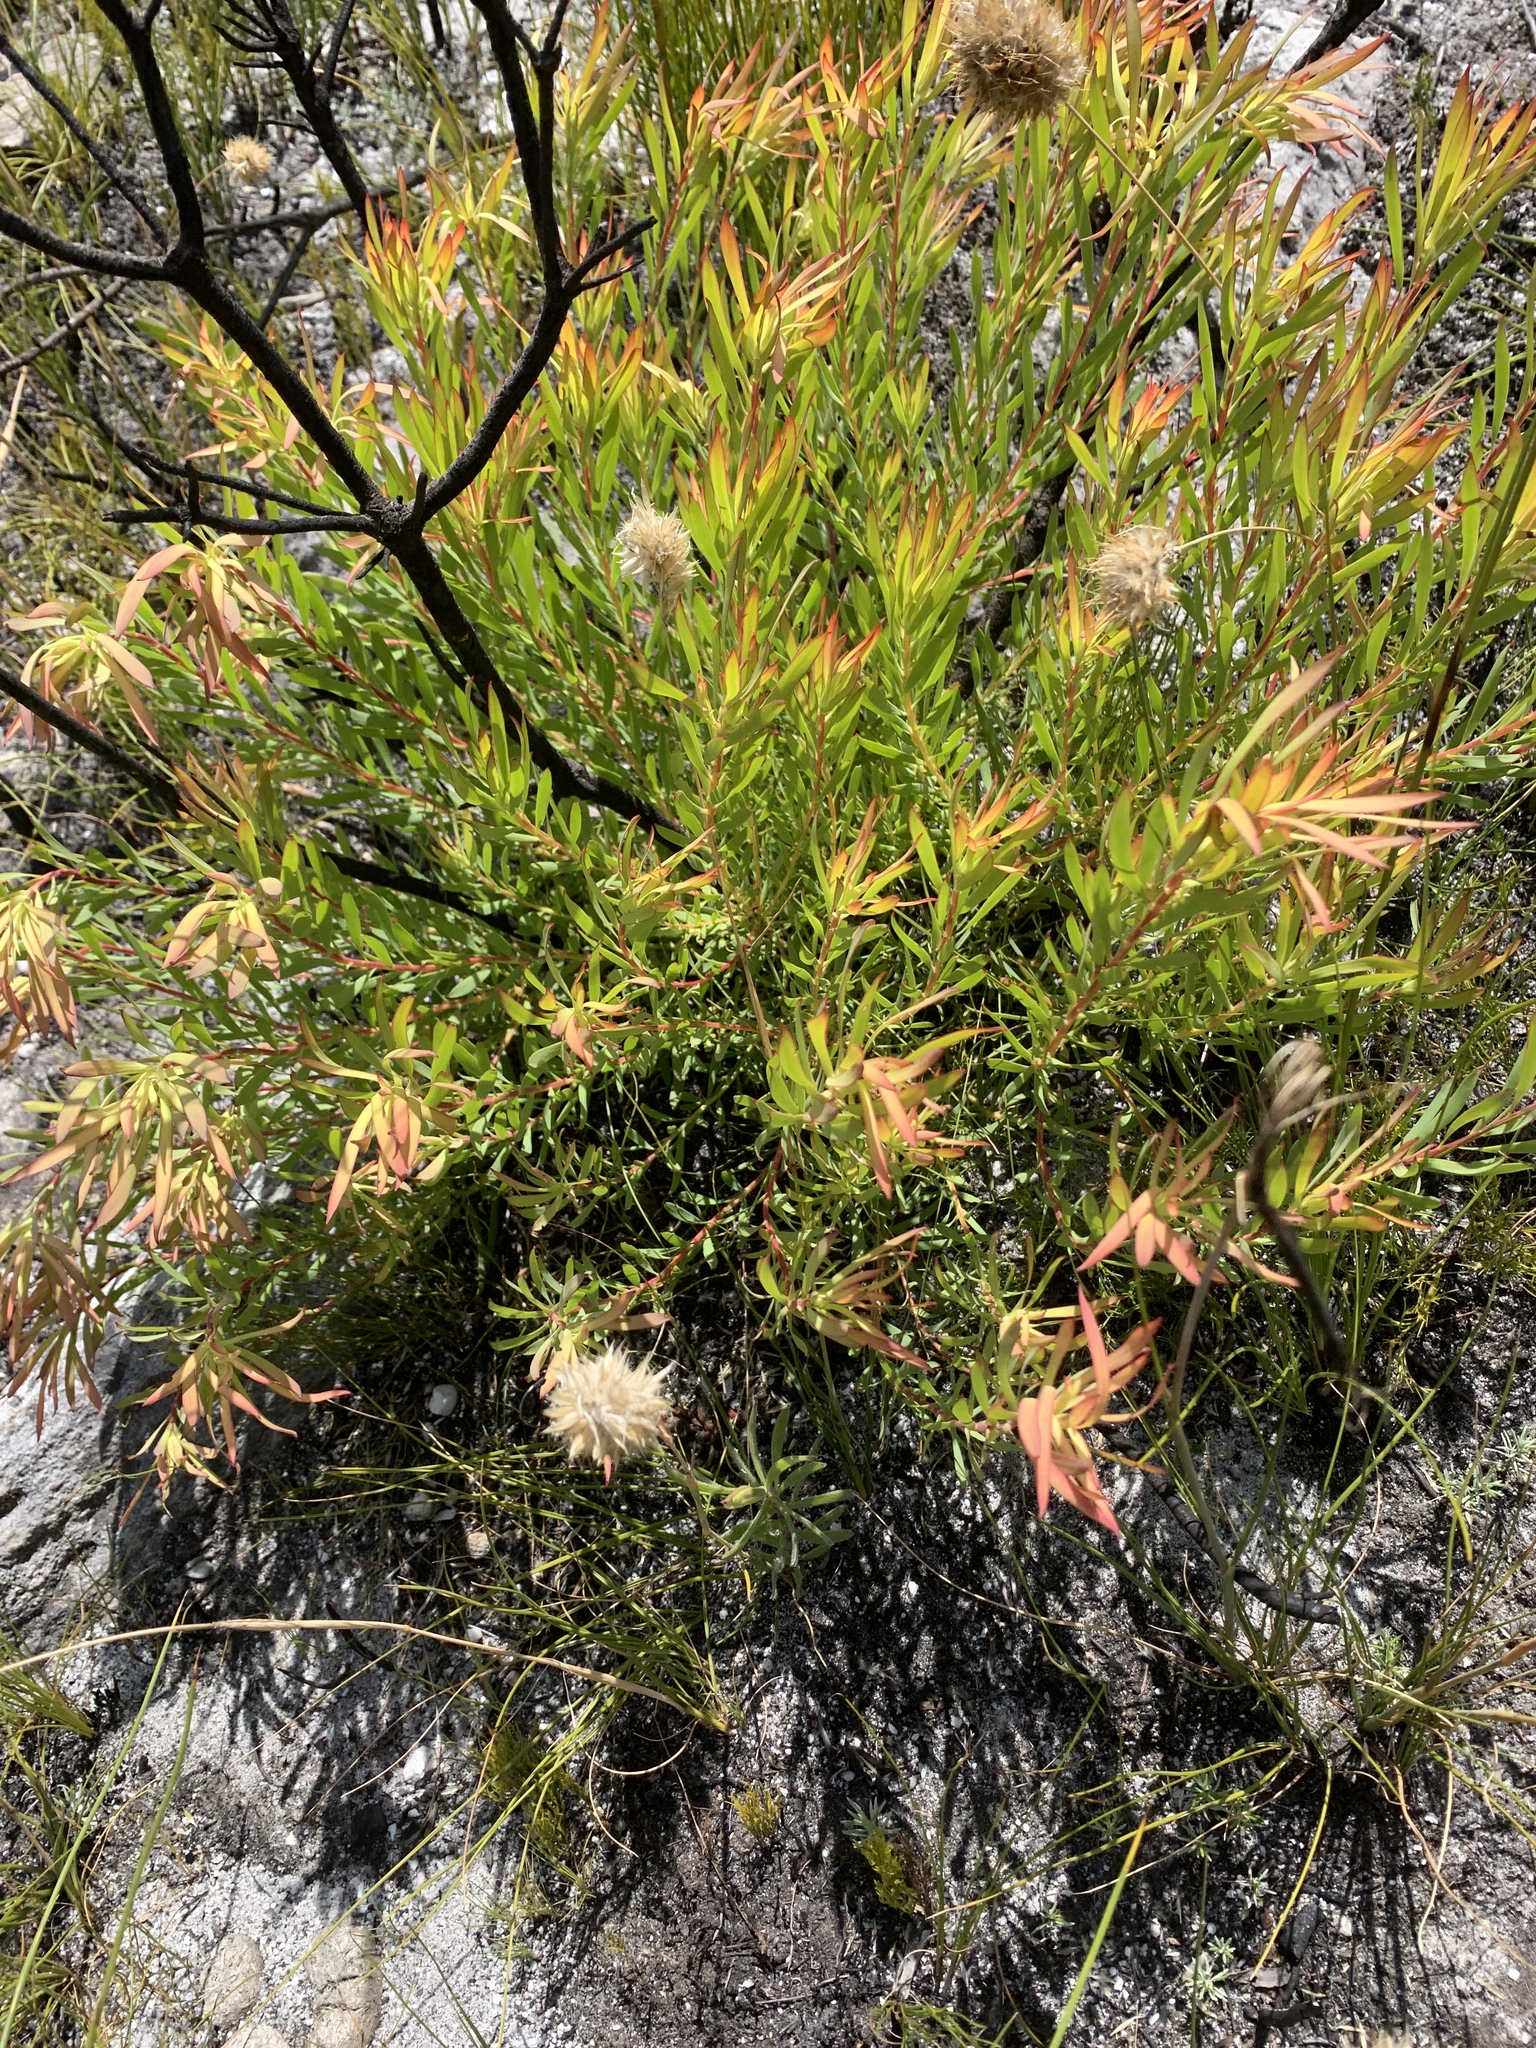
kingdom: Plantae
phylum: Tracheophyta
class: Magnoliopsida
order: Proteales
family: Proteaceae
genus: Leucadendron
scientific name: Leucadendron salignum
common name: Common sunshine conebush
